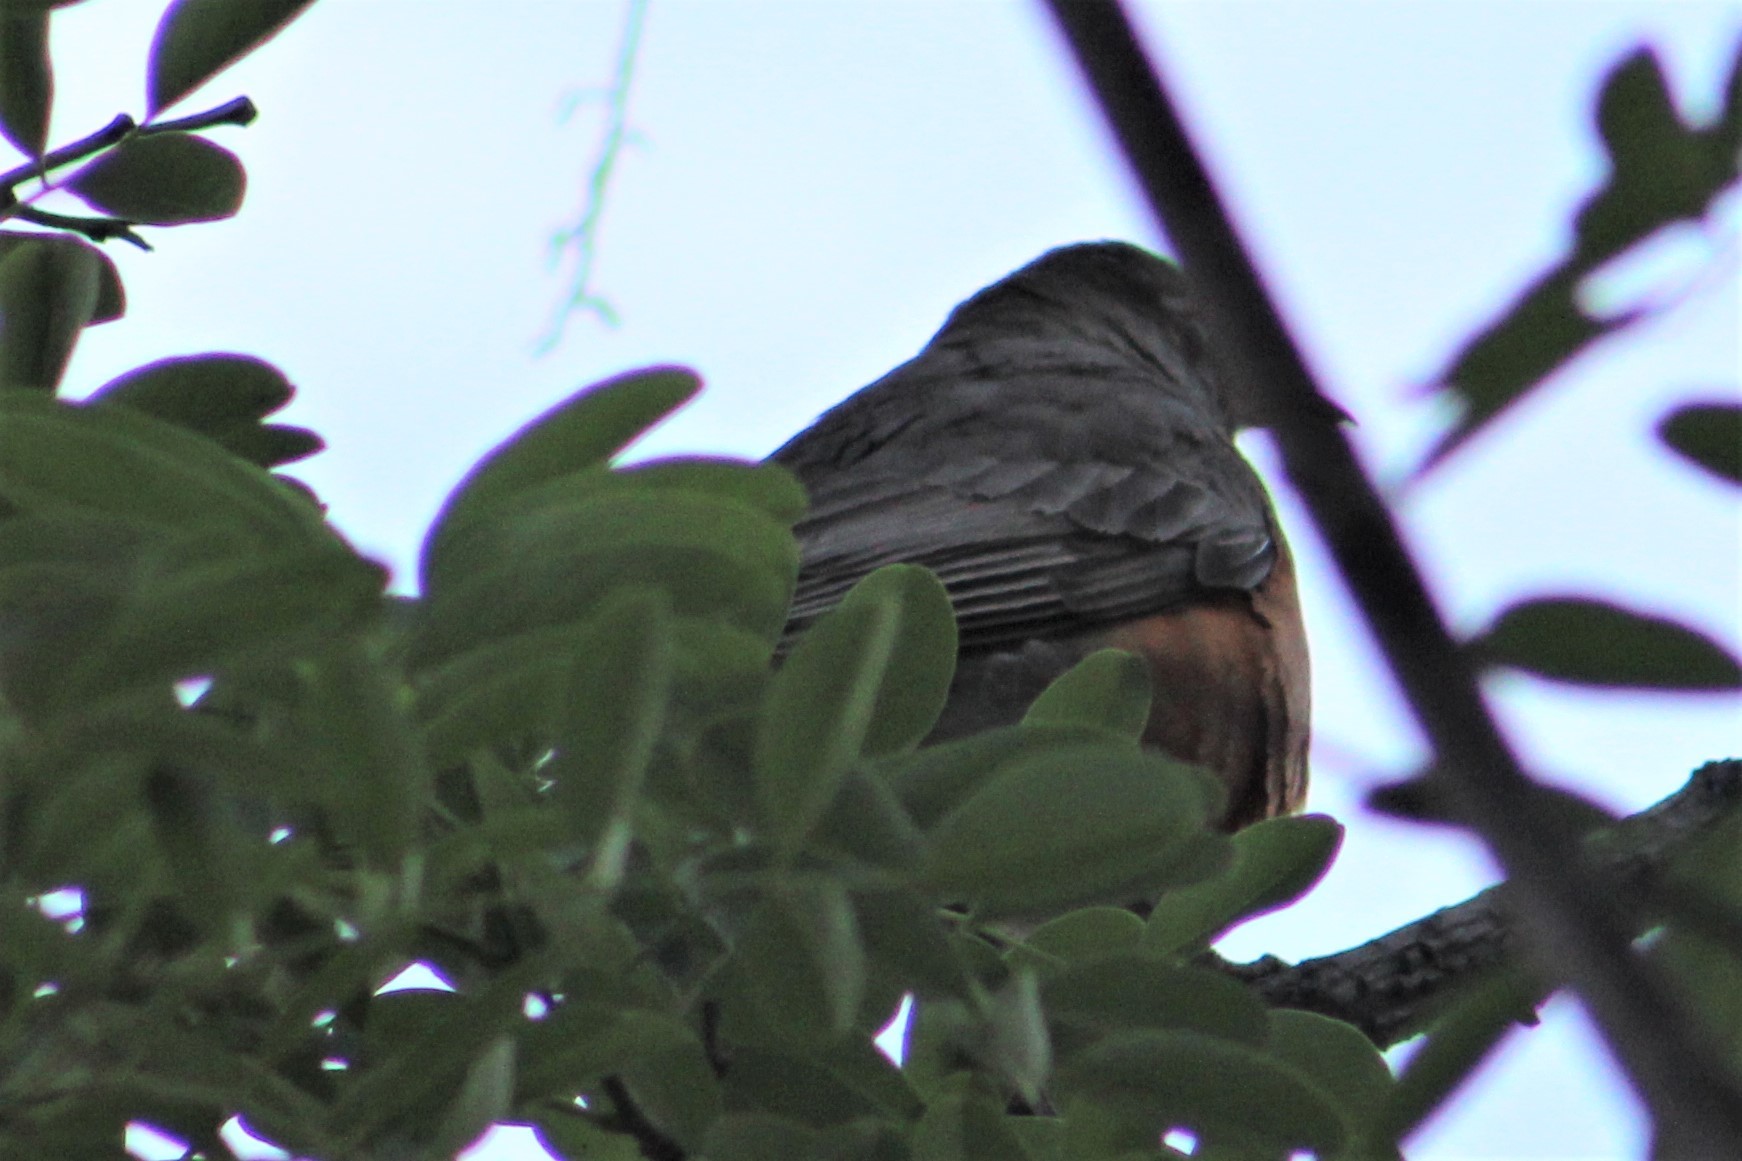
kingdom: Animalia
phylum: Chordata
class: Aves
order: Passeriformes
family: Turdidae
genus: Turdus
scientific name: Turdus migratorius
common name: American robin
